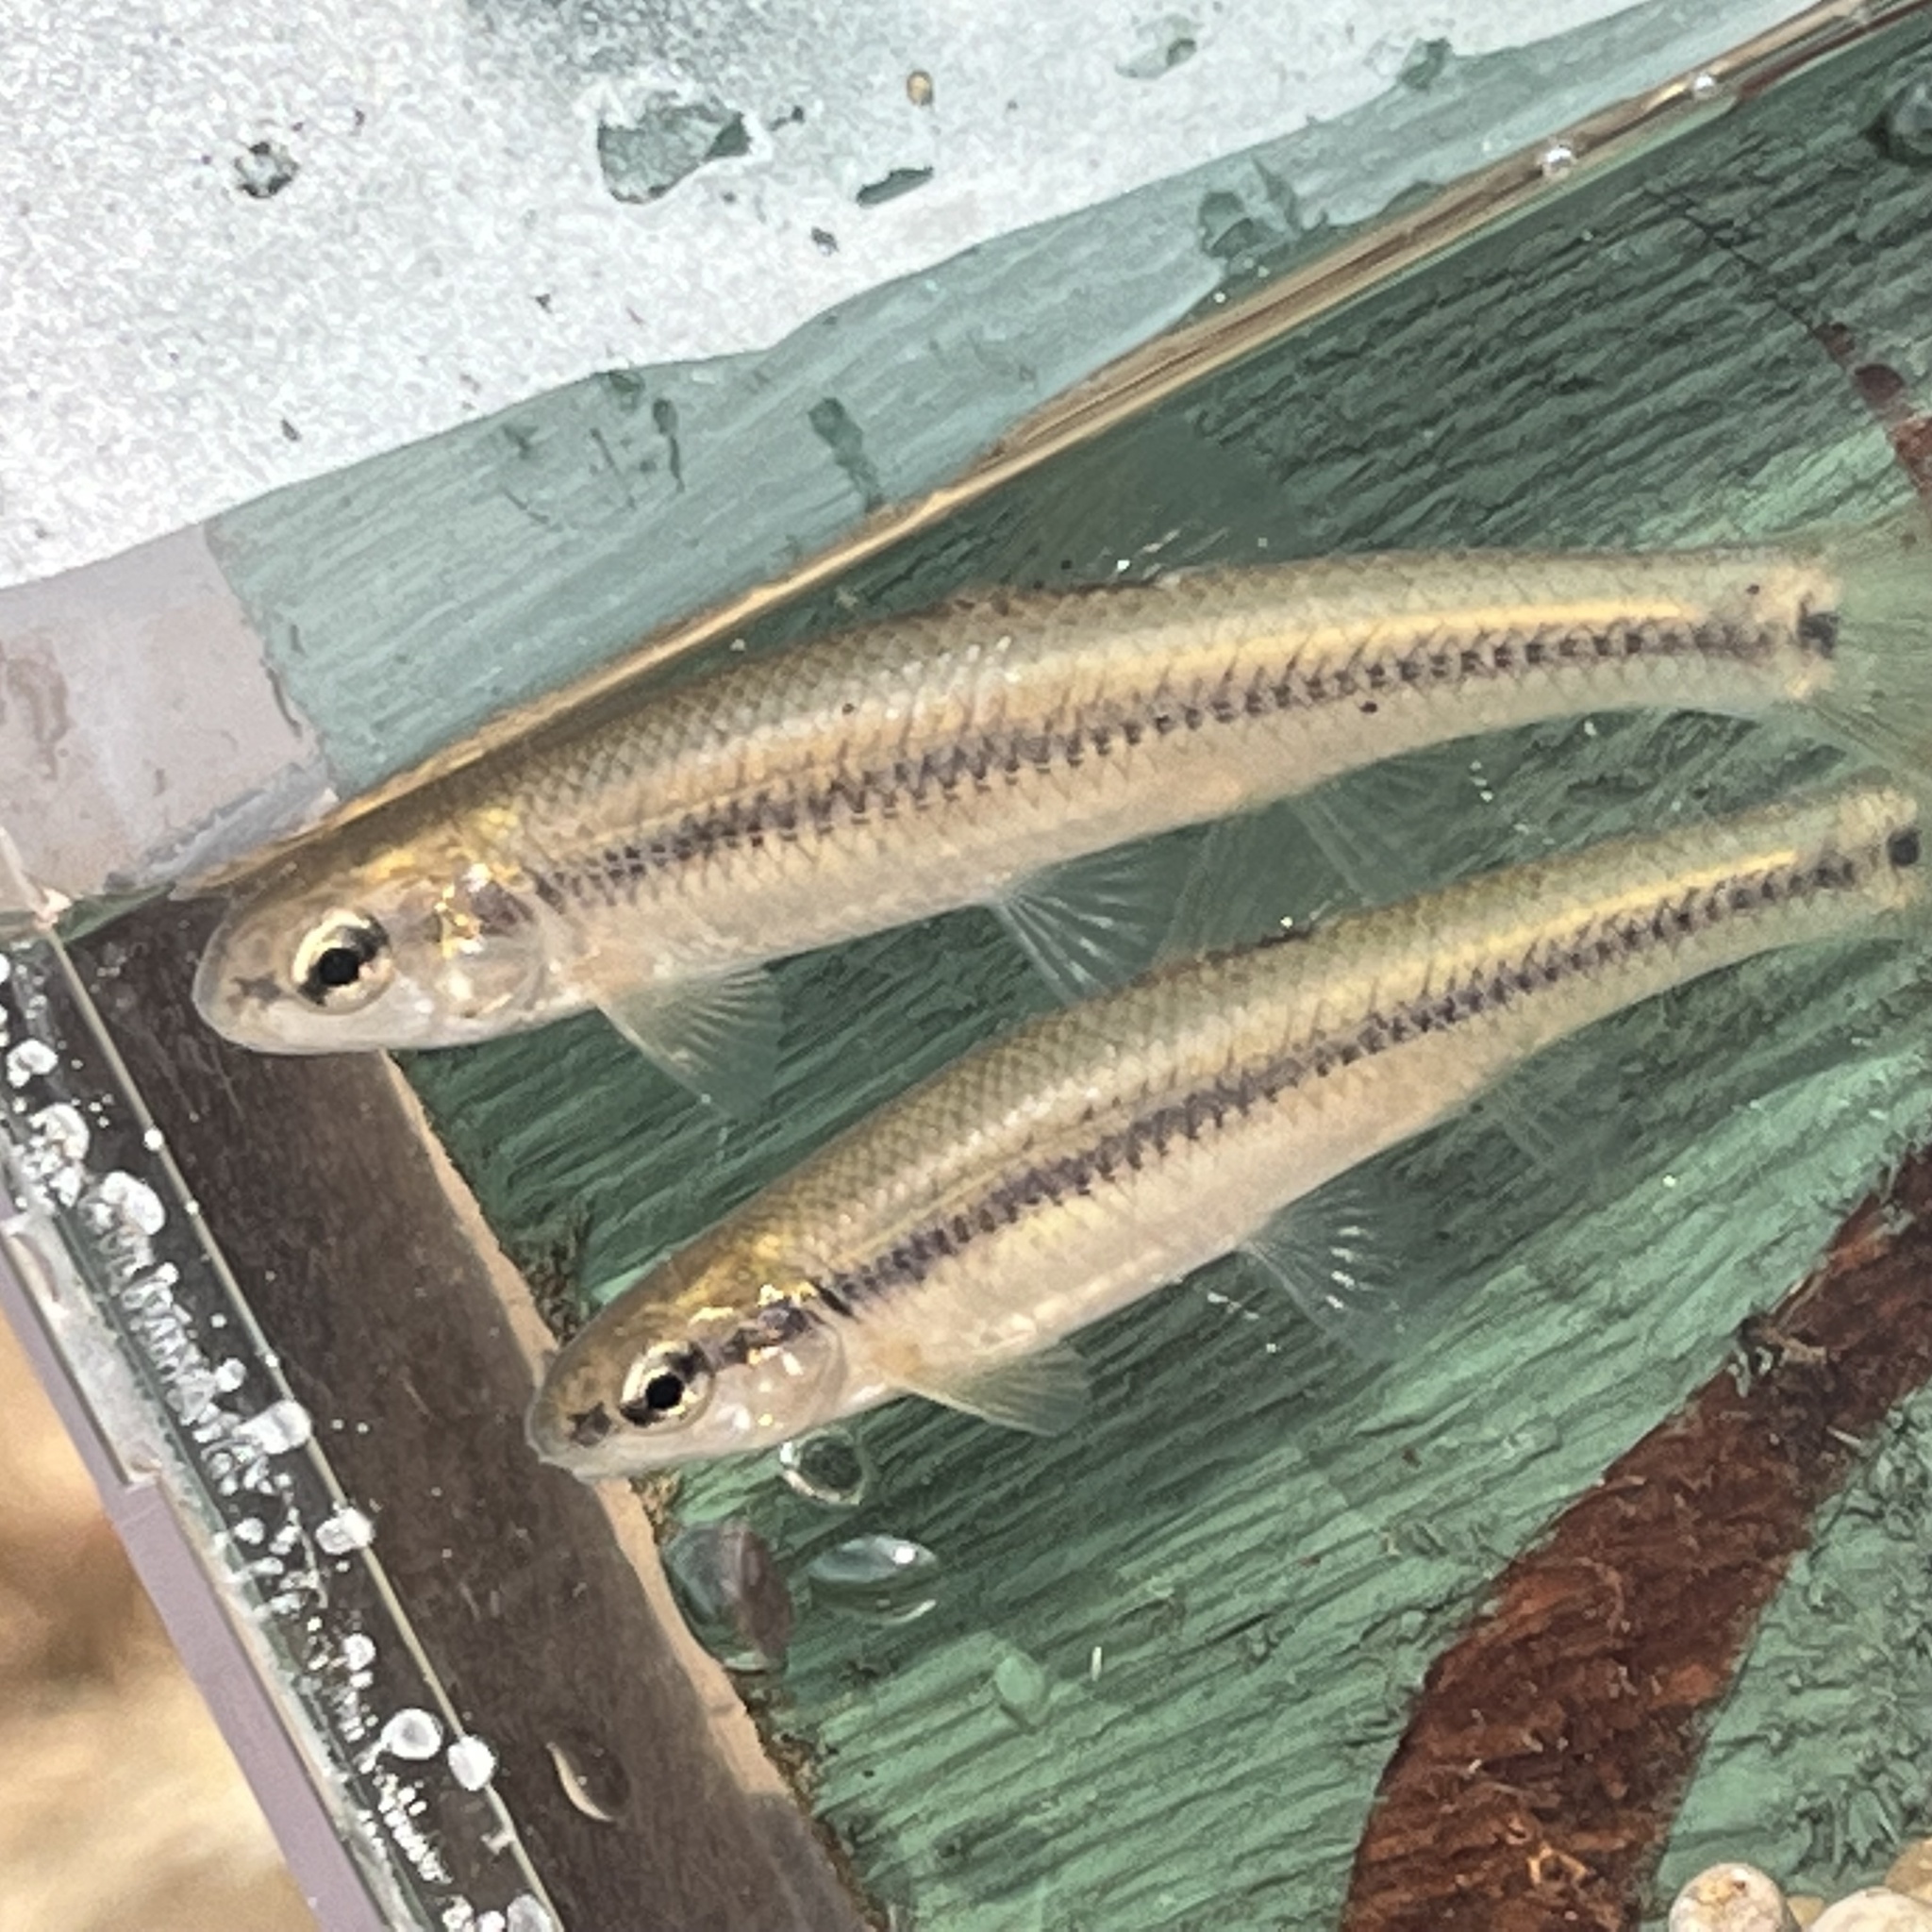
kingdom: Animalia
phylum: Chordata
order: Cypriniformes
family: Cyprinidae
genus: Pimephales
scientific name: Pimephales notatus
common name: Bluntnose minnow
